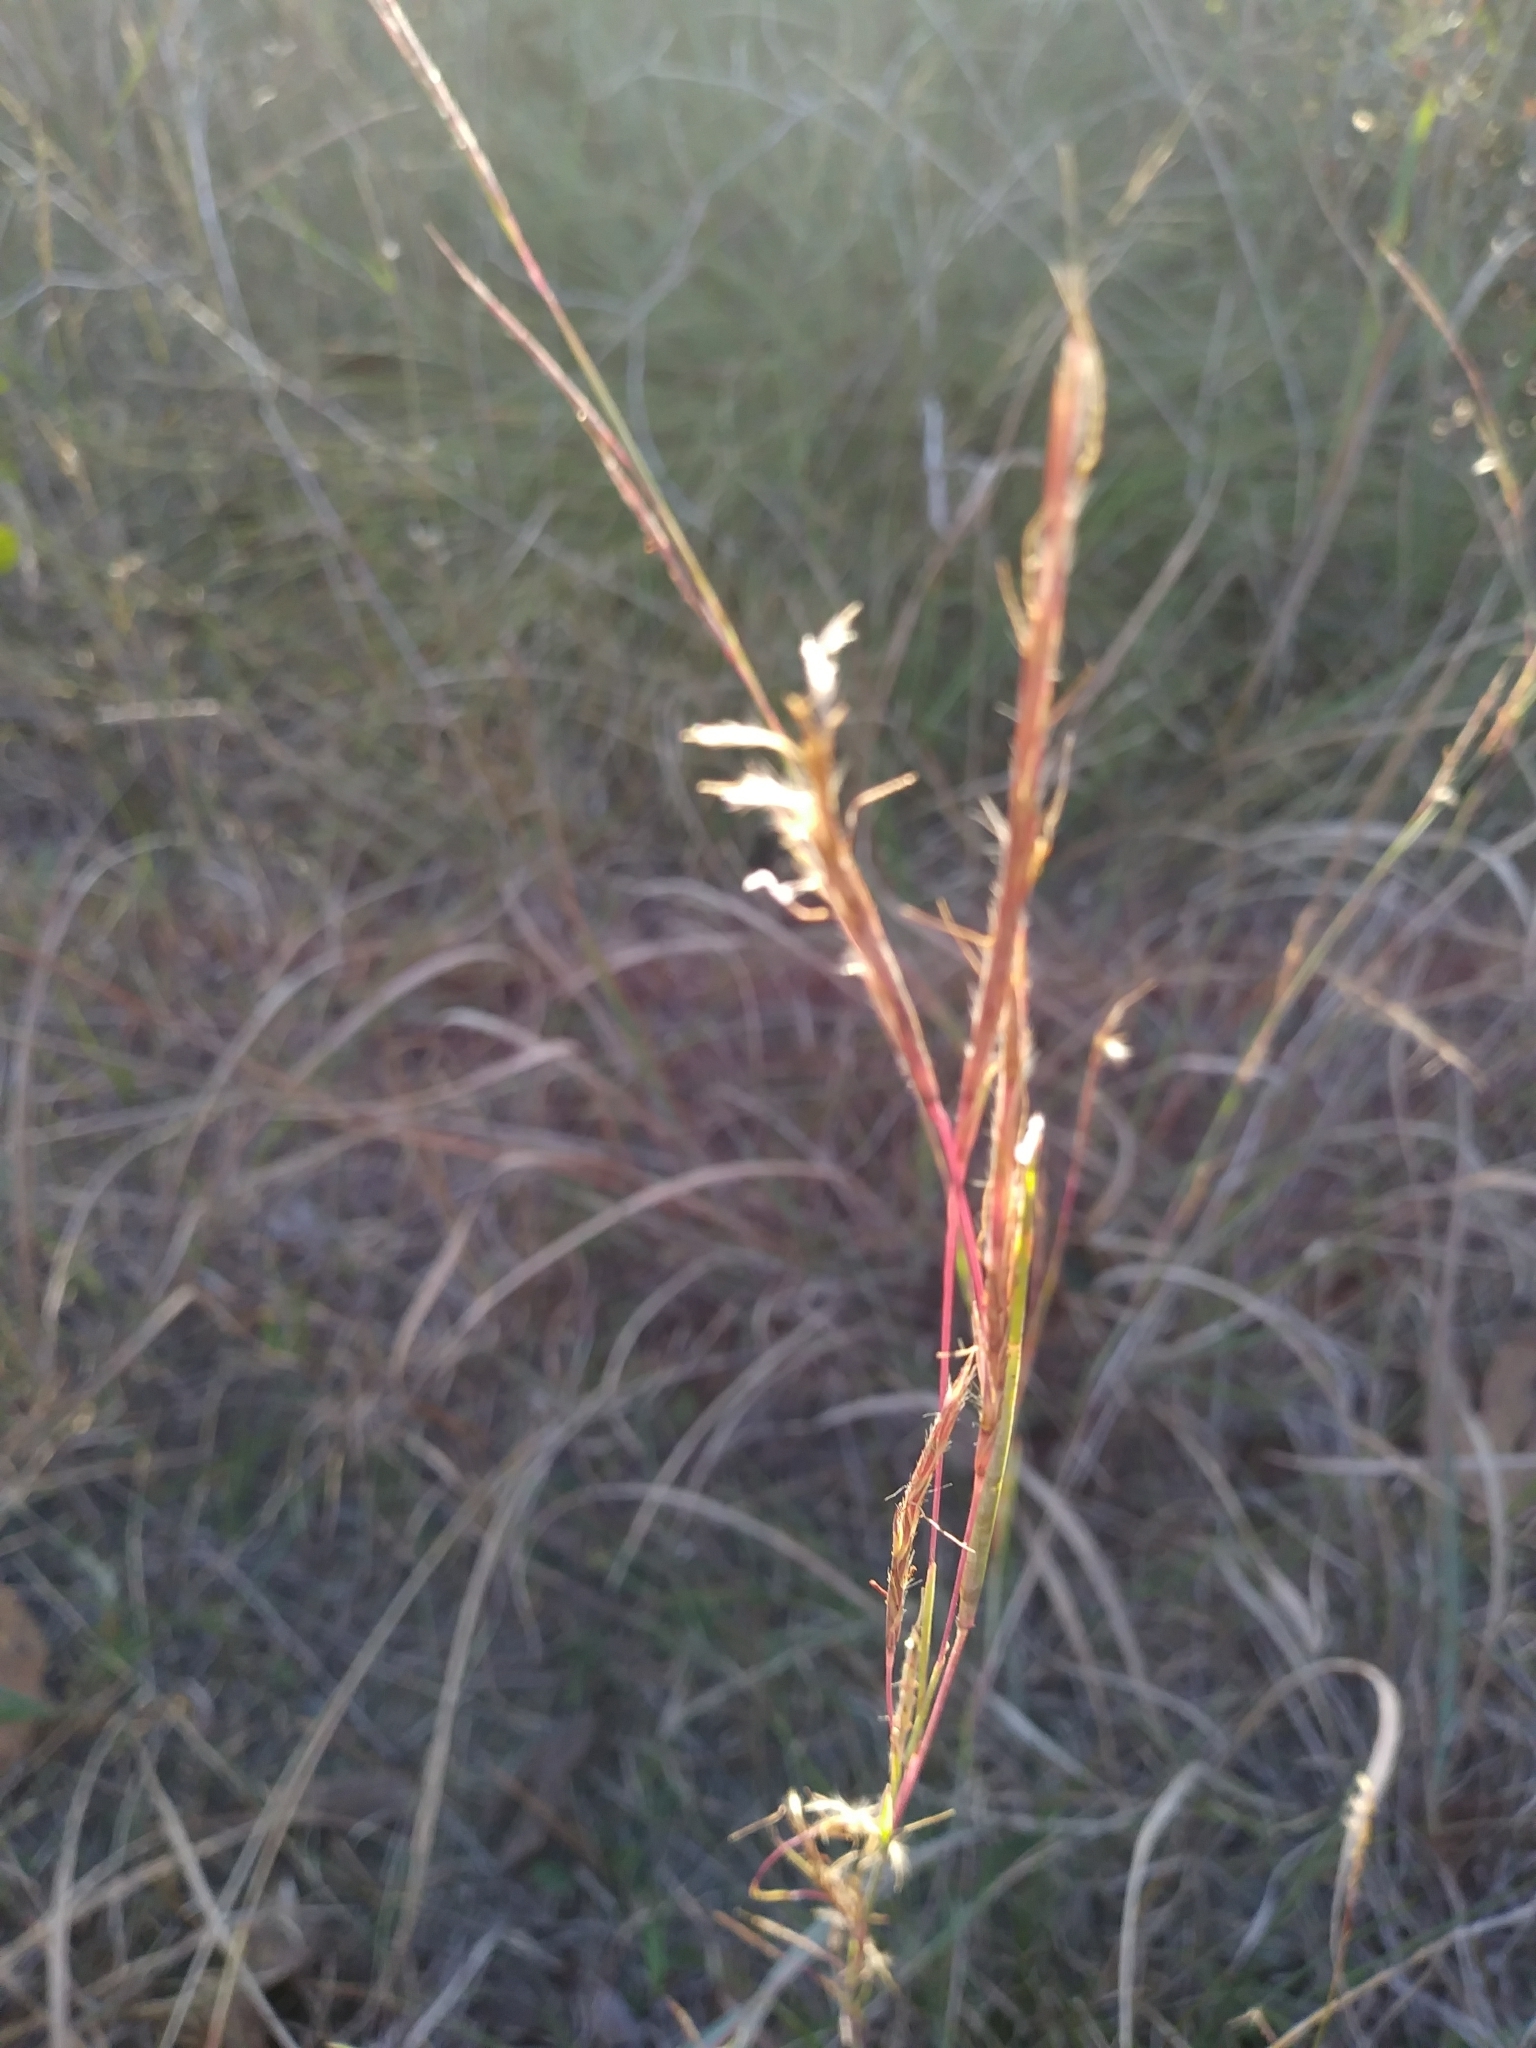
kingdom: Plantae
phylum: Tracheophyta
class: Liliopsida
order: Poales
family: Poaceae
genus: Schizachyrium
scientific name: Schizachyrium scoparium
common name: Little bluestem
